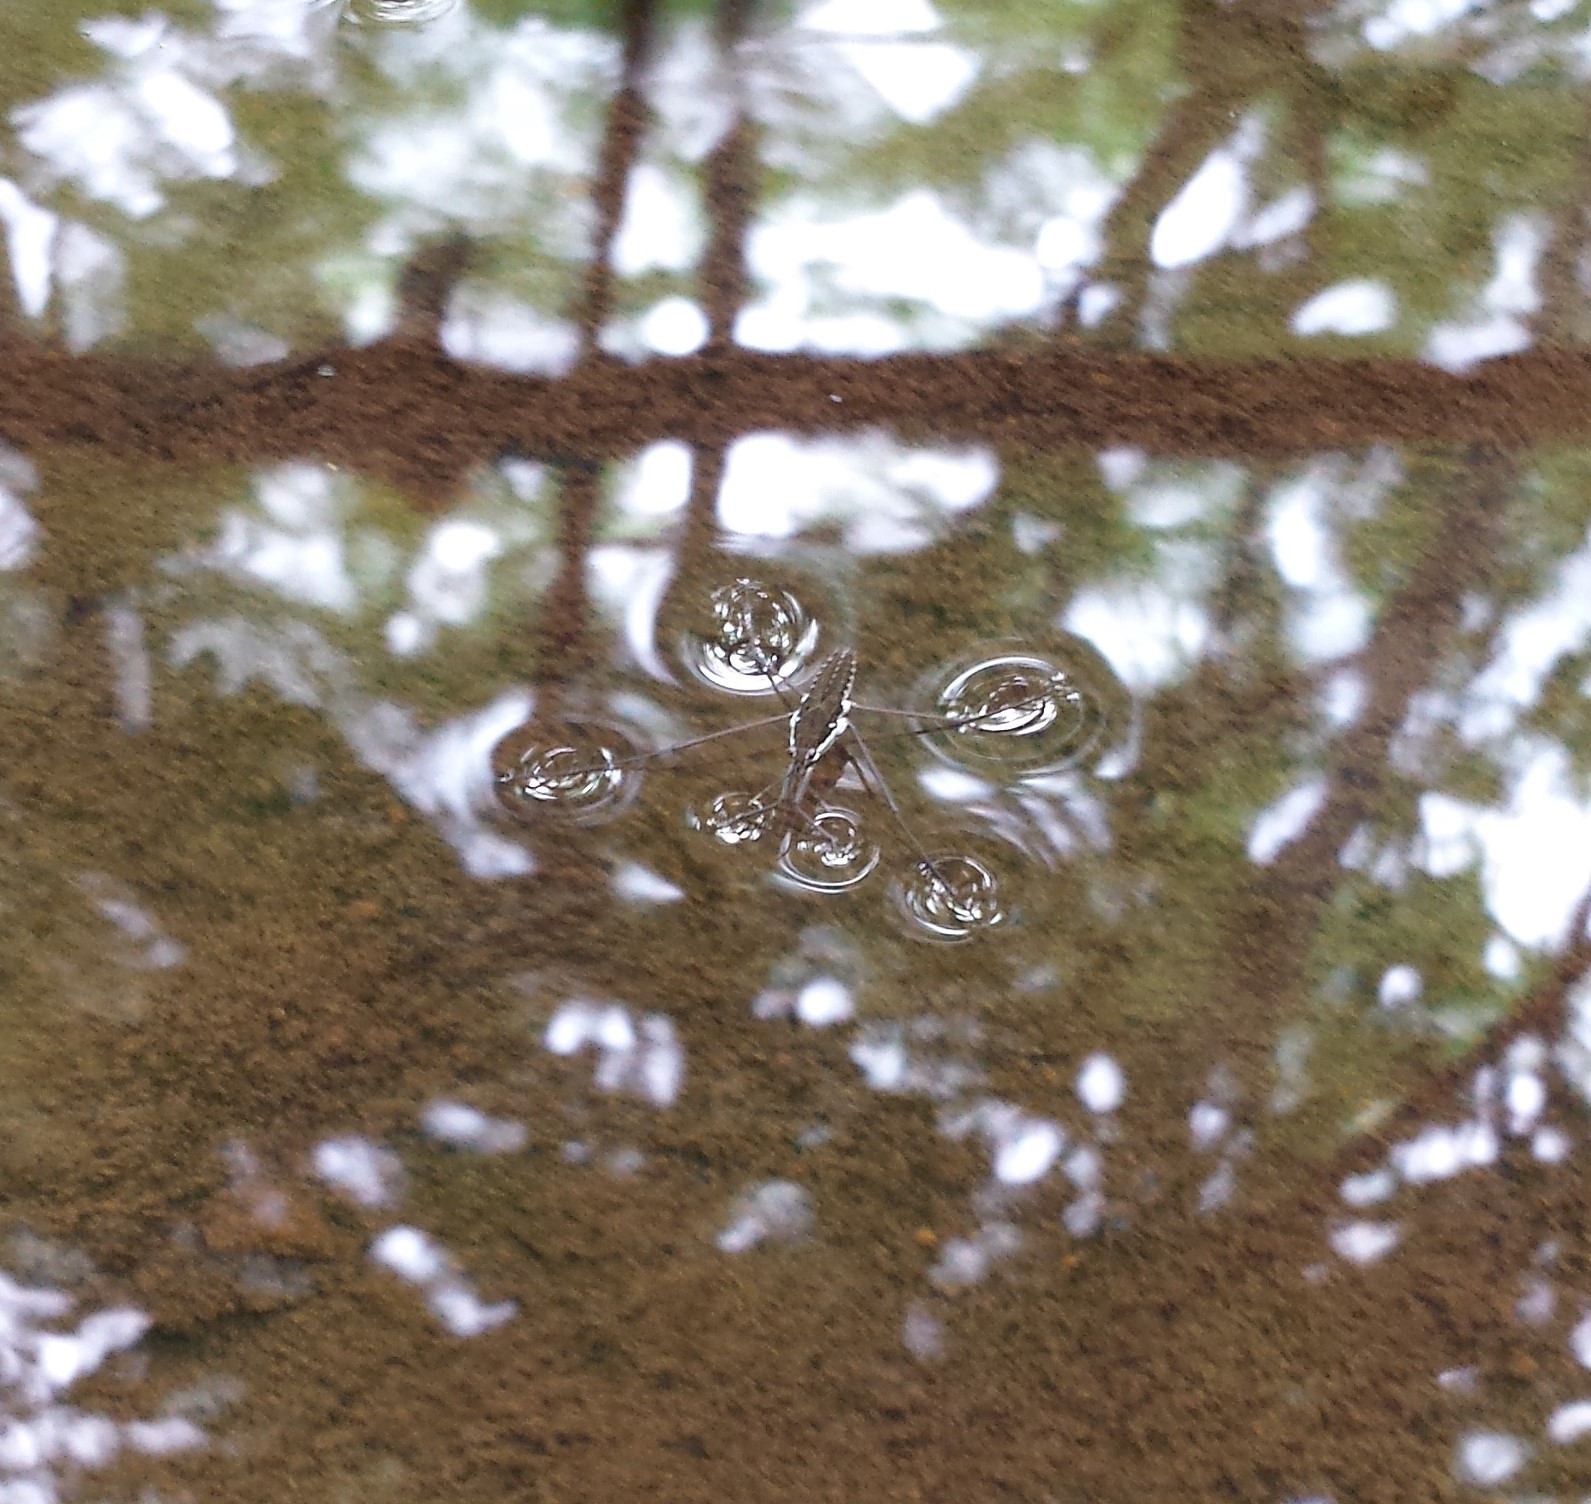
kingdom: Animalia
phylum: Arthropoda
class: Insecta
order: Hemiptera
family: Gerridae
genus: Aquarius
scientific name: Aquarius remigis
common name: Common water strider
